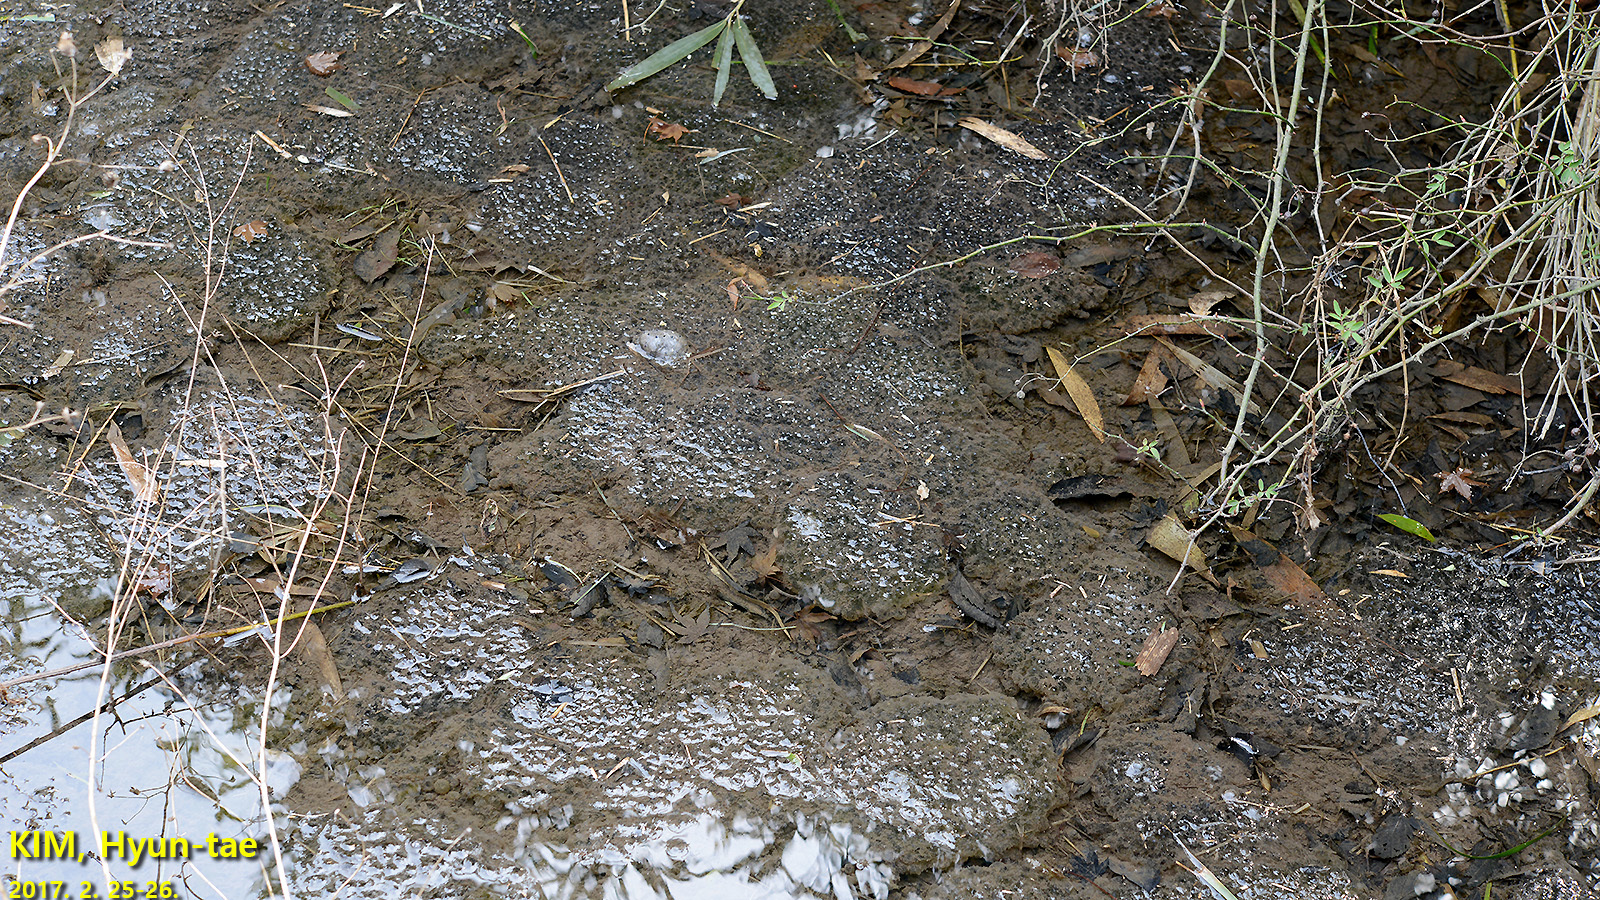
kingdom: Animalia
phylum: Chordata
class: Amphibia
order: Anura
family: Ranidae
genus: Rana
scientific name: Rana uenoi
